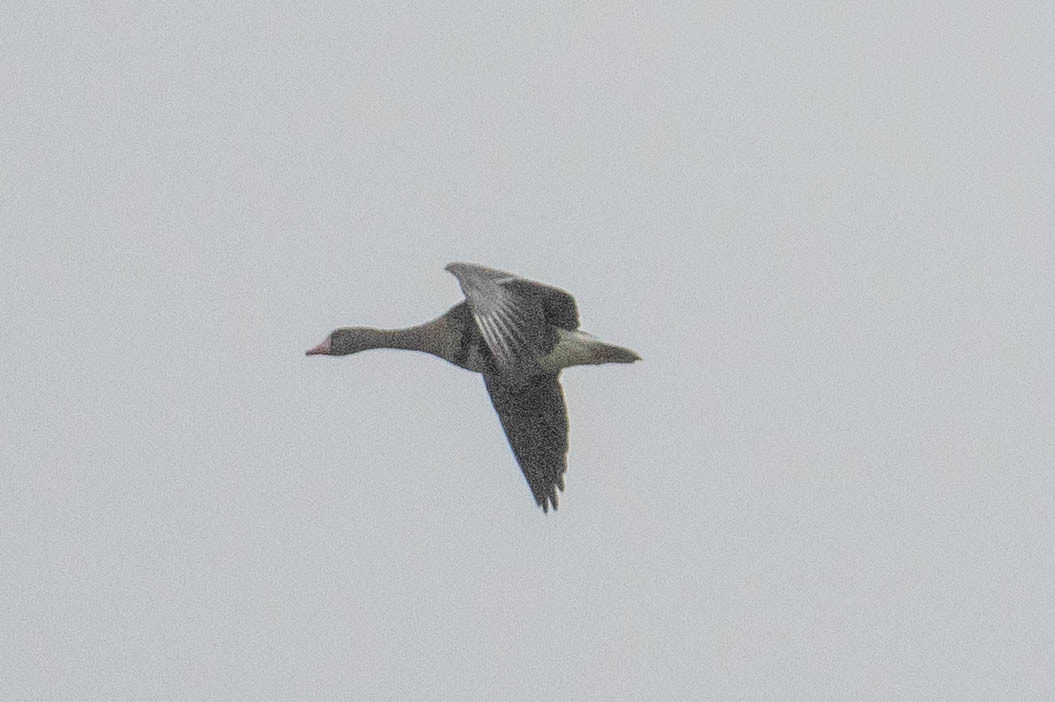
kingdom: Animalia
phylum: Chordata
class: Aves
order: Anseriformes
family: Anatidae
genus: Anser
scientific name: Anser albifrons
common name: Greater white-fronted goose
